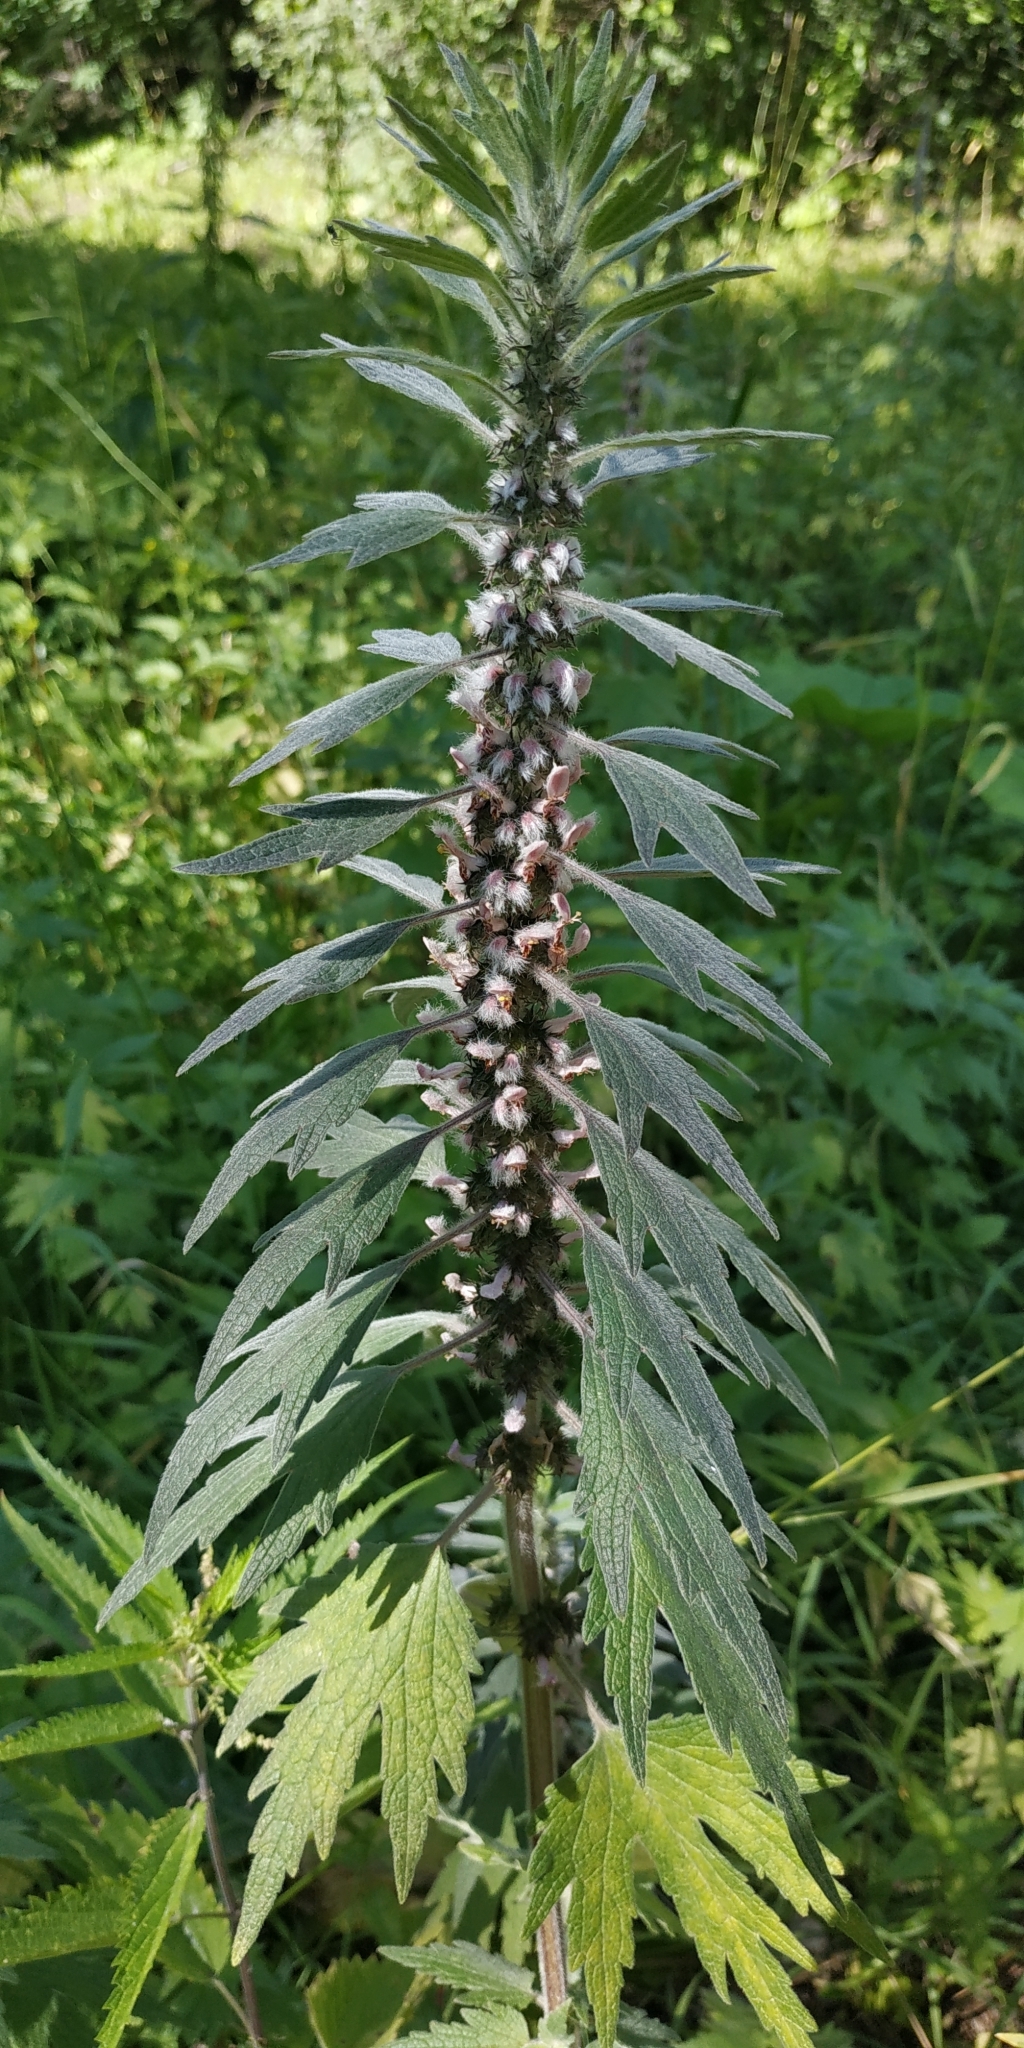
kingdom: Plantae
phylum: Tracheophyta
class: Magnoliopsida
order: Lamiales
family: Lamiaceae
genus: Leonurus
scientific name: Leonurus quinquelobatus
